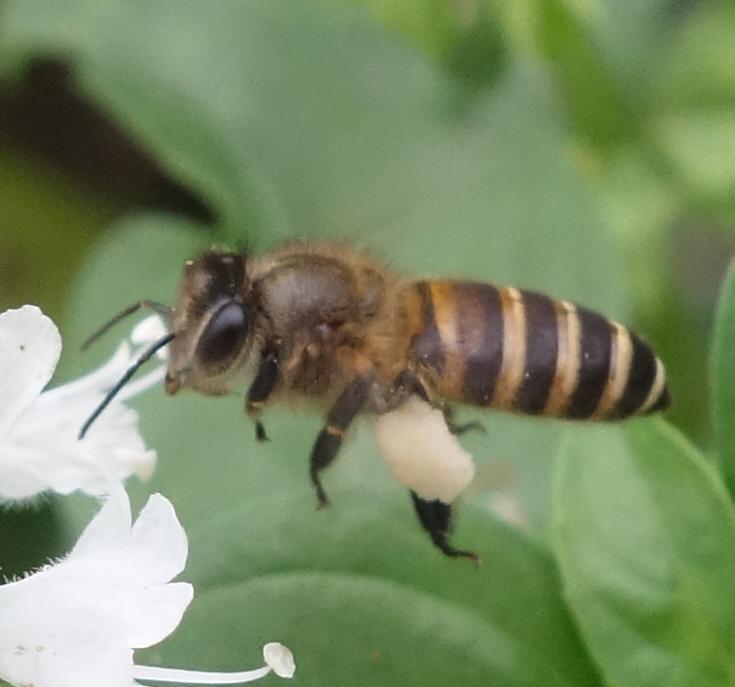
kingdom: Animalia
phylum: Arthropoda
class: Insecta
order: Hymenoptera
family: Apidae
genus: Apis
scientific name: Apis cerana
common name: Honey bee
